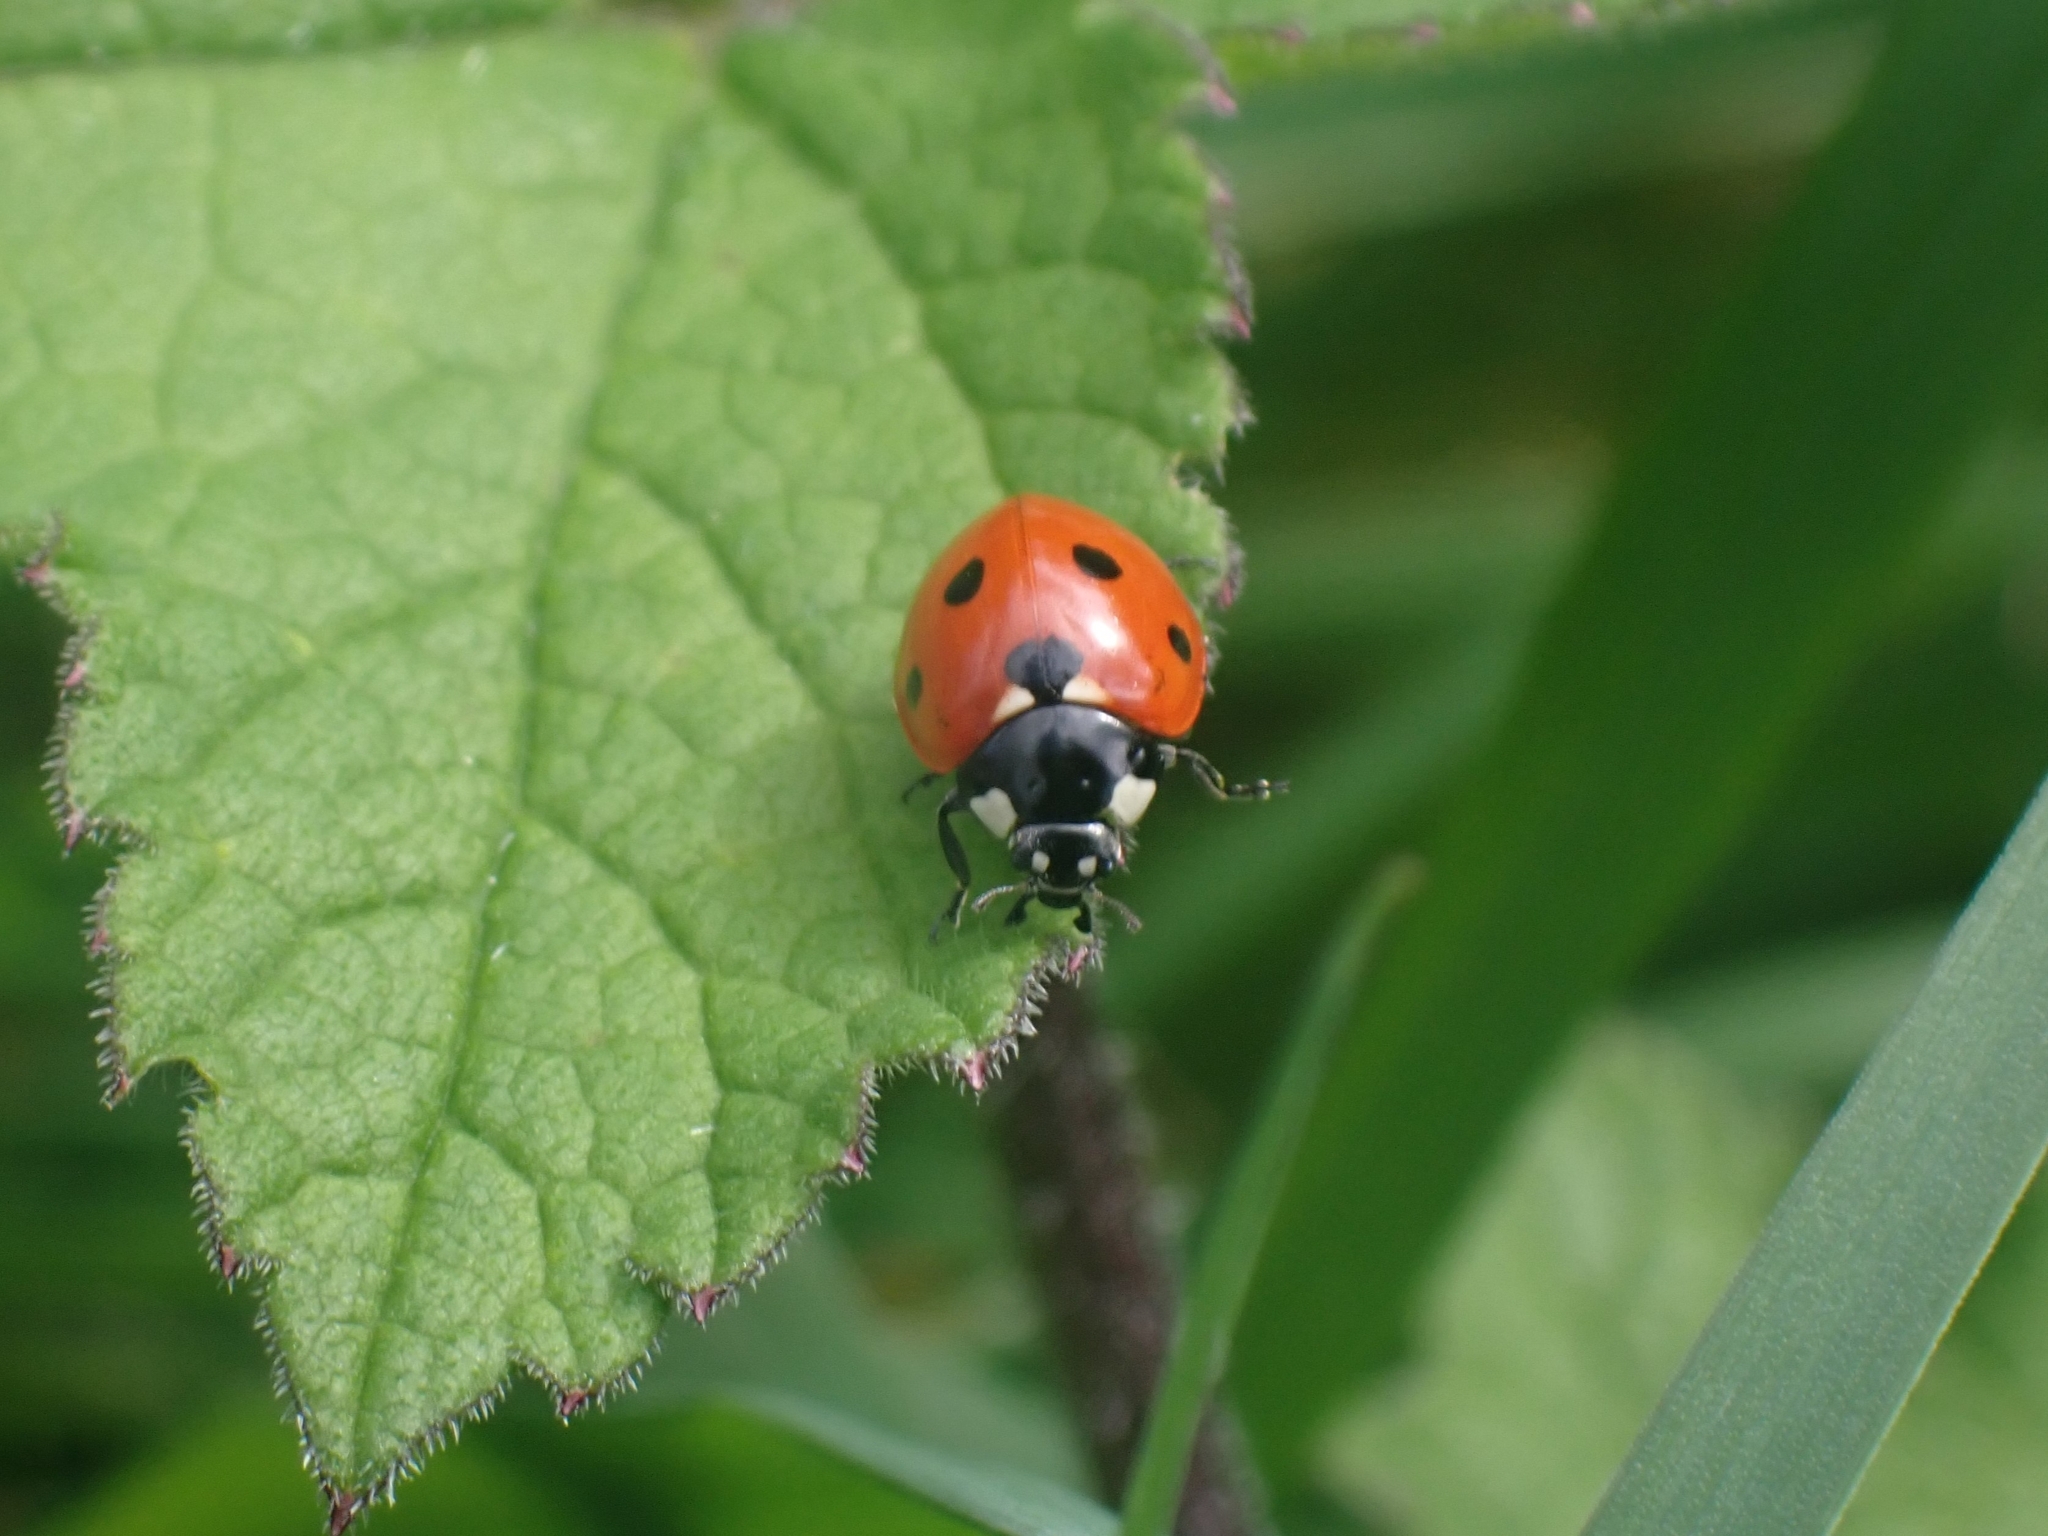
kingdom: Animalia
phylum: Arthropoda
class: Insecta
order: Coleoptera
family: Coccinellidae
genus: Coccinella
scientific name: Coccinella septempunctata
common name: Sevenspotted lady beetle
